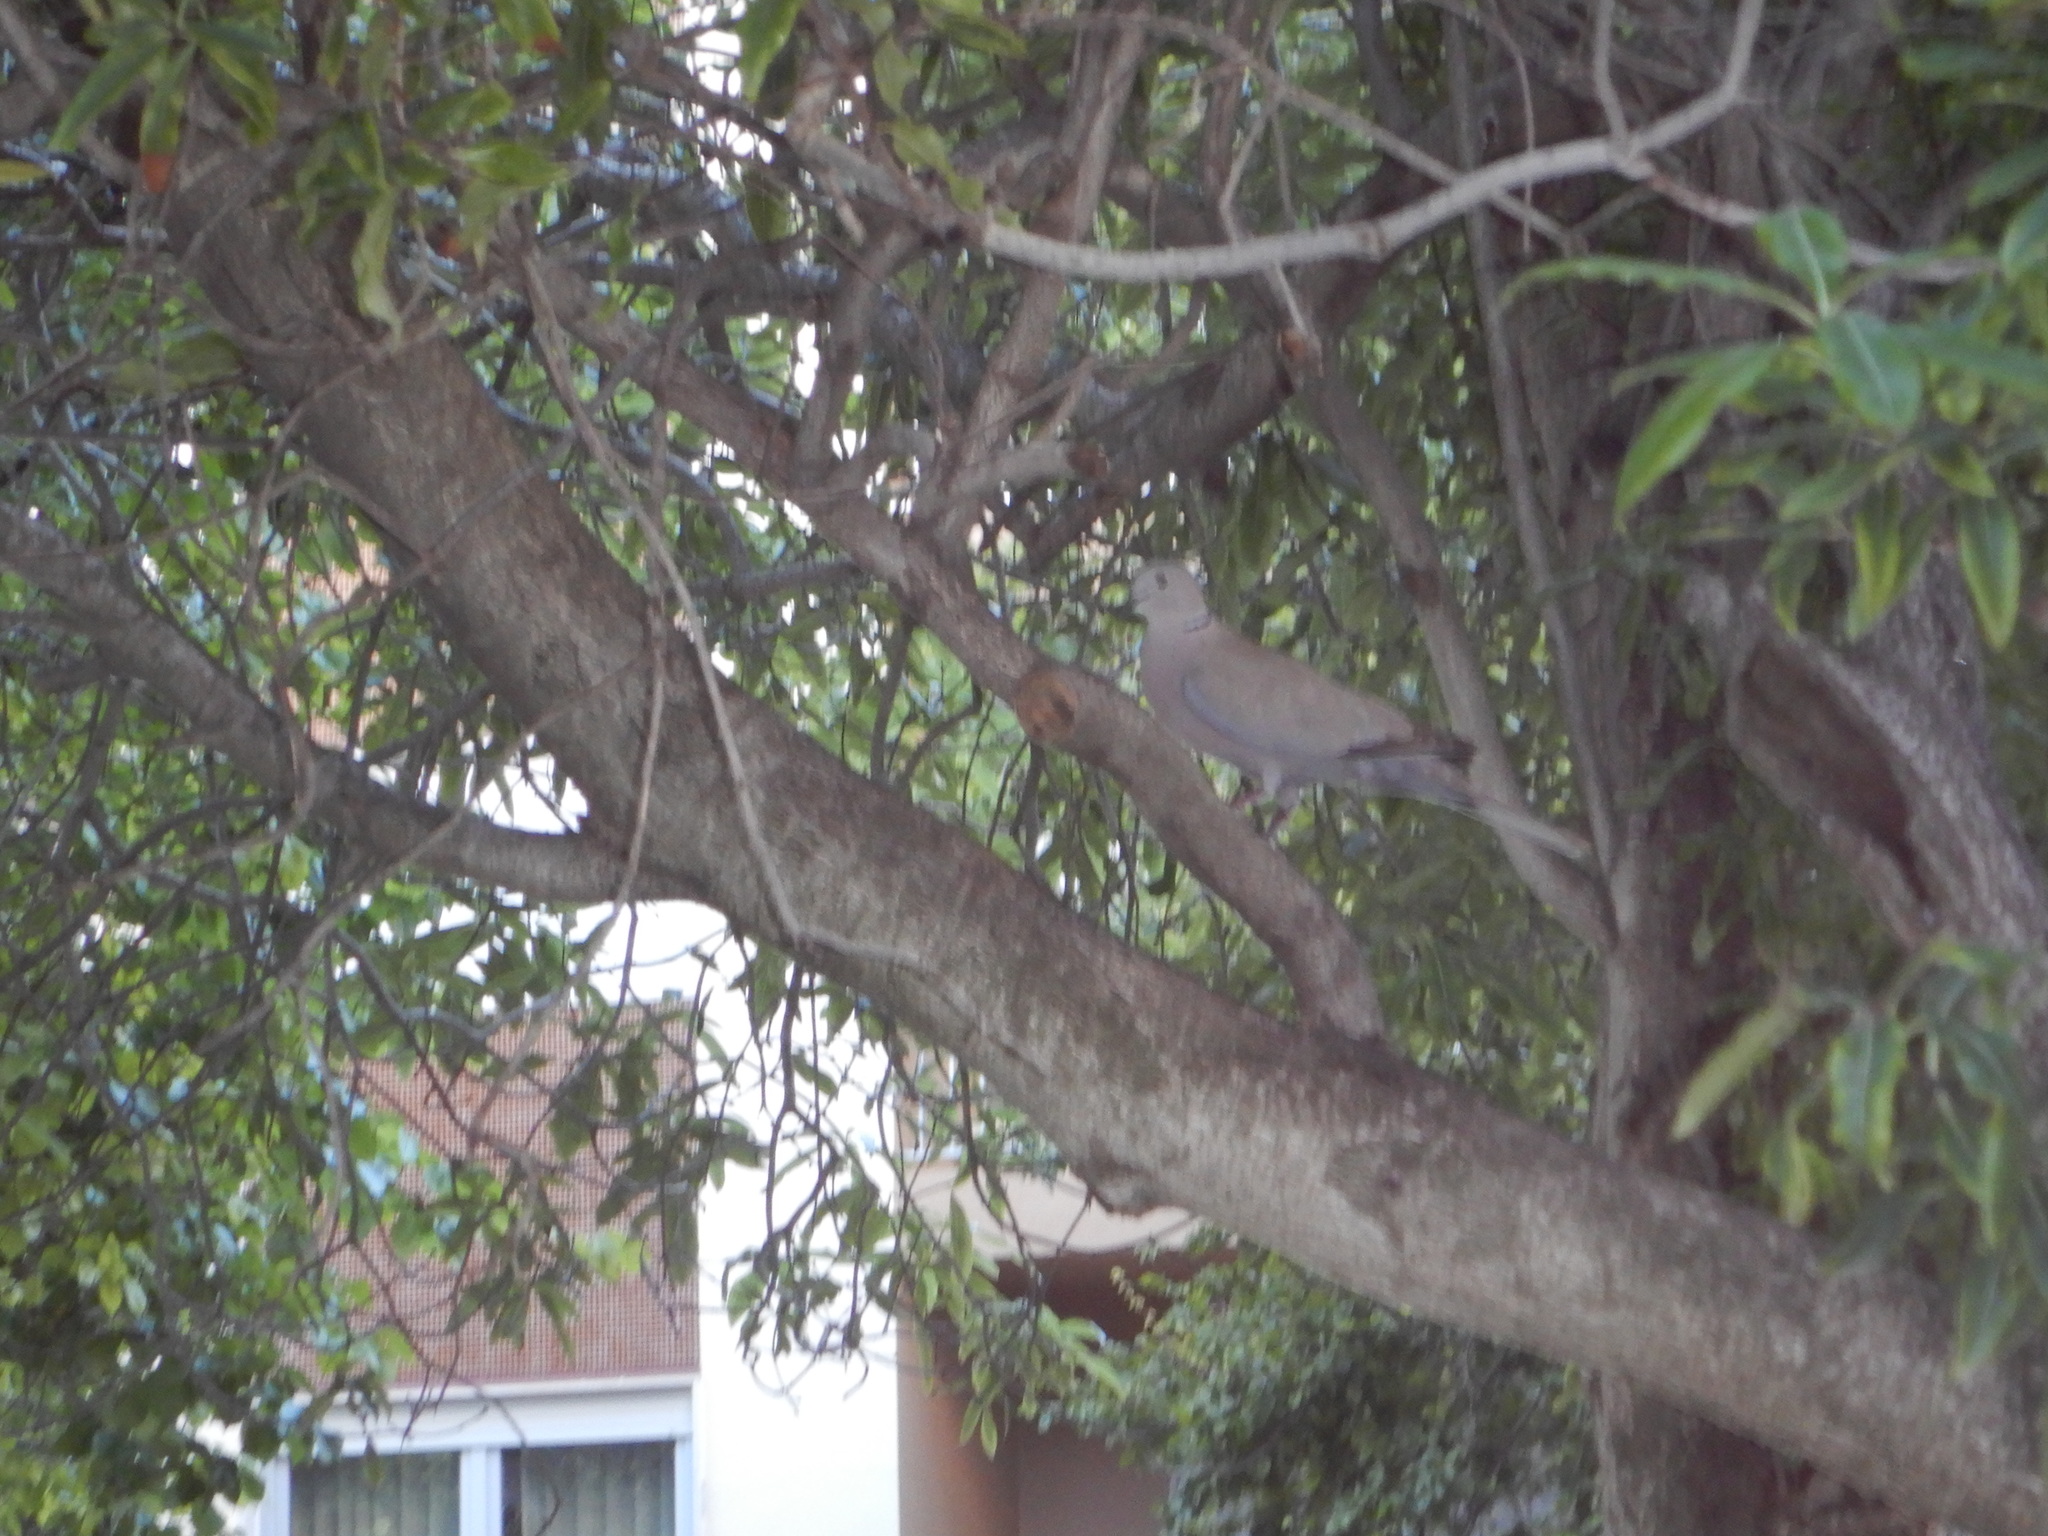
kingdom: Animalia
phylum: Chordata
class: Aves
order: Columbiformes
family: Columbidae
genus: Streptopelia
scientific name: Streptopelia decaocto
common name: Eurasian collared dove
